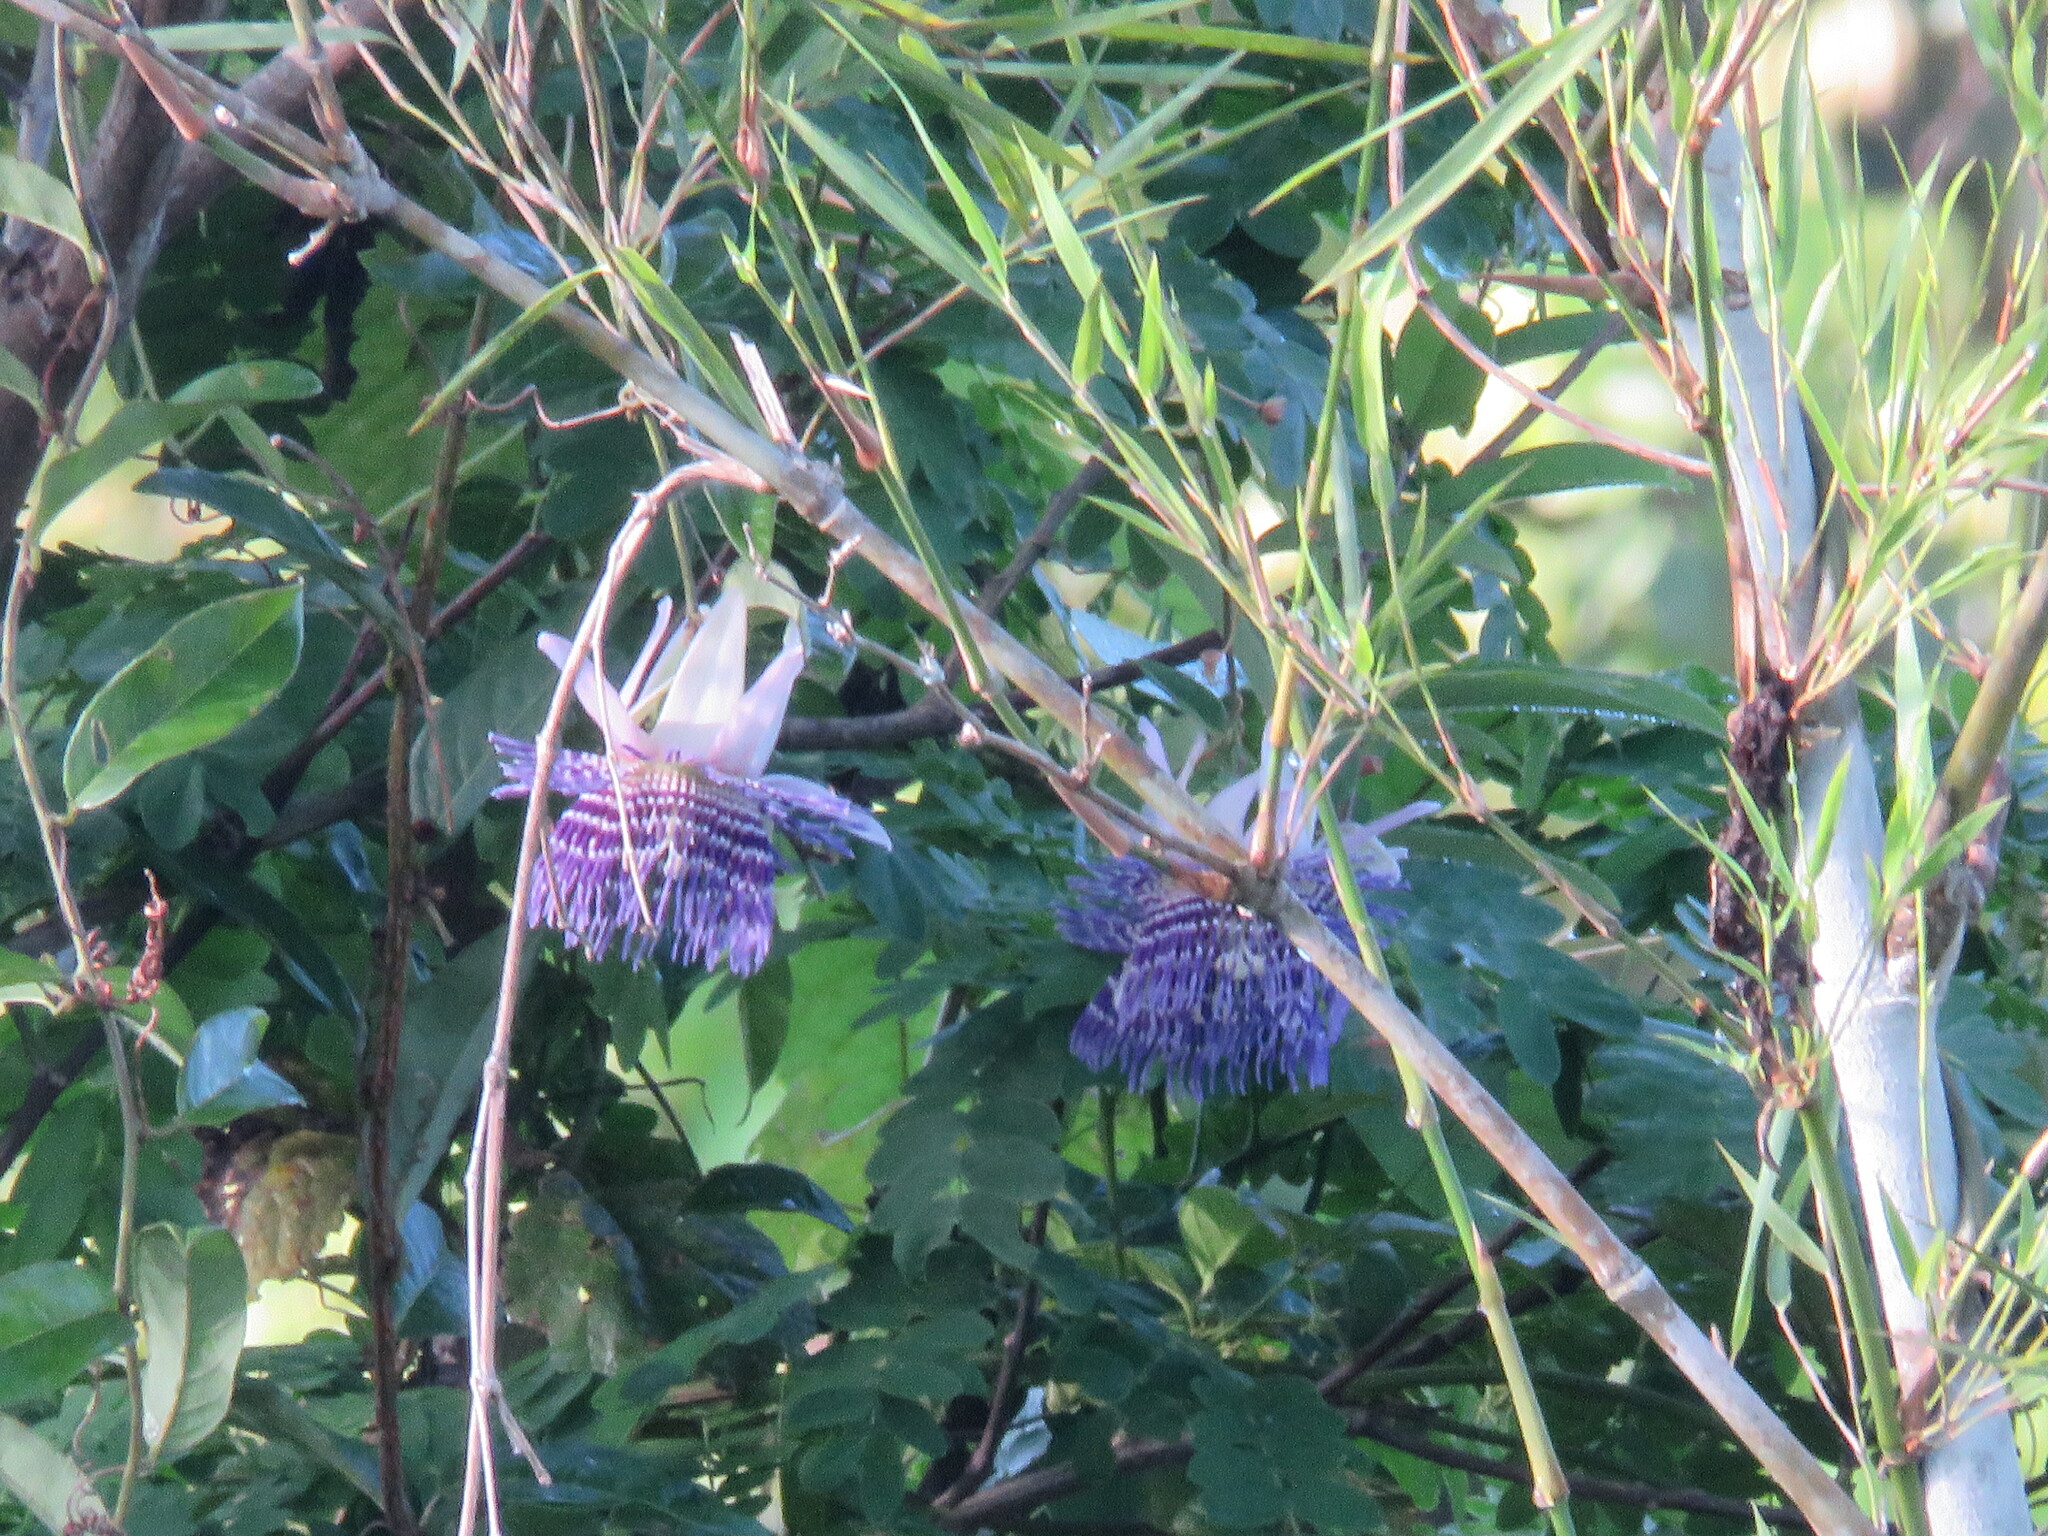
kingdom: Plantae
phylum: Tracheophyta
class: Magnoliopsida
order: Malpighiales
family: Passifloraceae
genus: Passiflora
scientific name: Passiflora phellos
